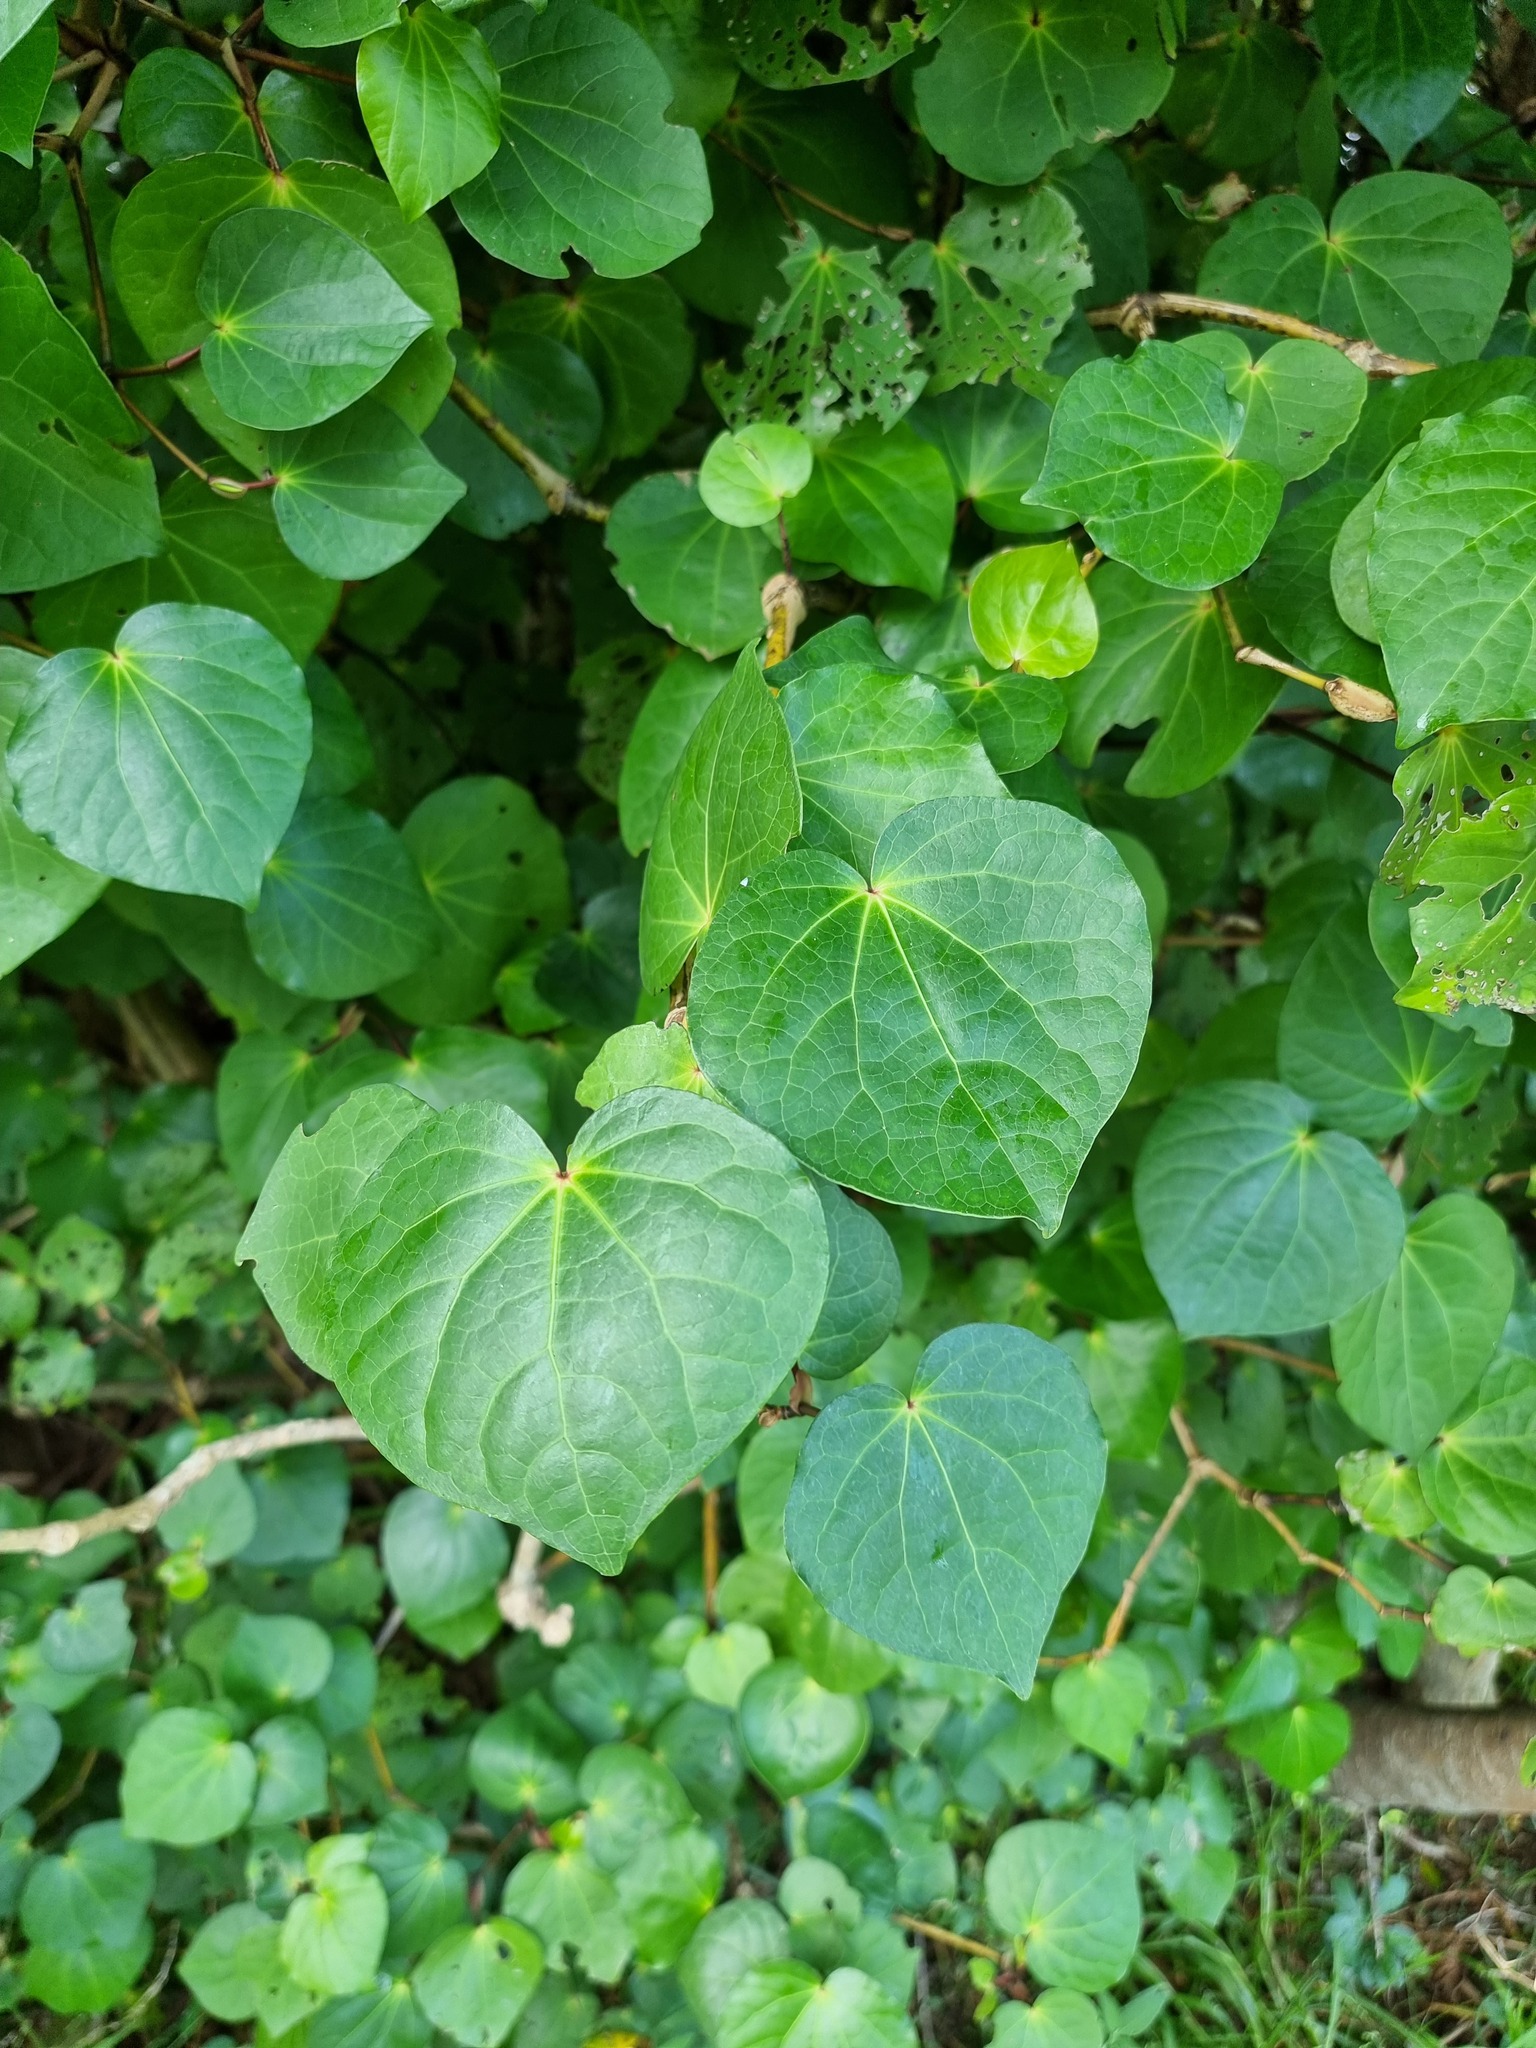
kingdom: Plantae
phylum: Tracheophyta
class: Magnoliopsida
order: Piperales
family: Piperaceae
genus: Macropiper
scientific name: Macropiper excelsum
